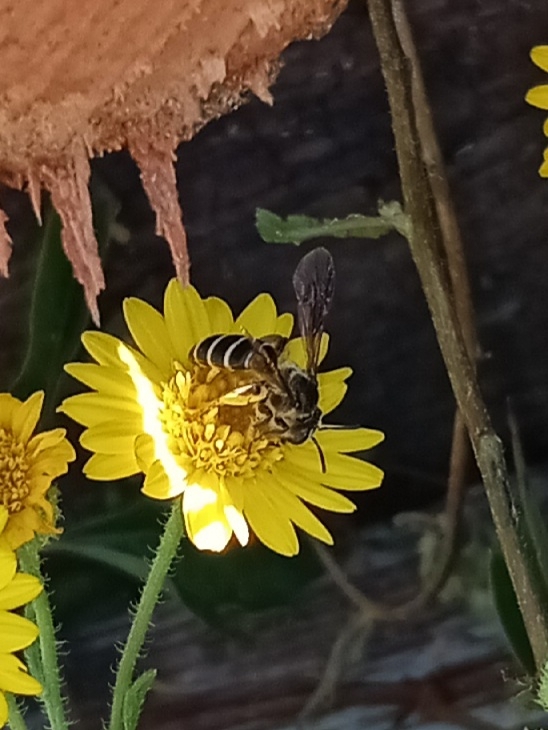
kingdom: Animalia
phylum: Arthropoda
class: Insecta
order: Hymenoptera
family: Andrenidae
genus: Andrena
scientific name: Andrena fulvipennis
